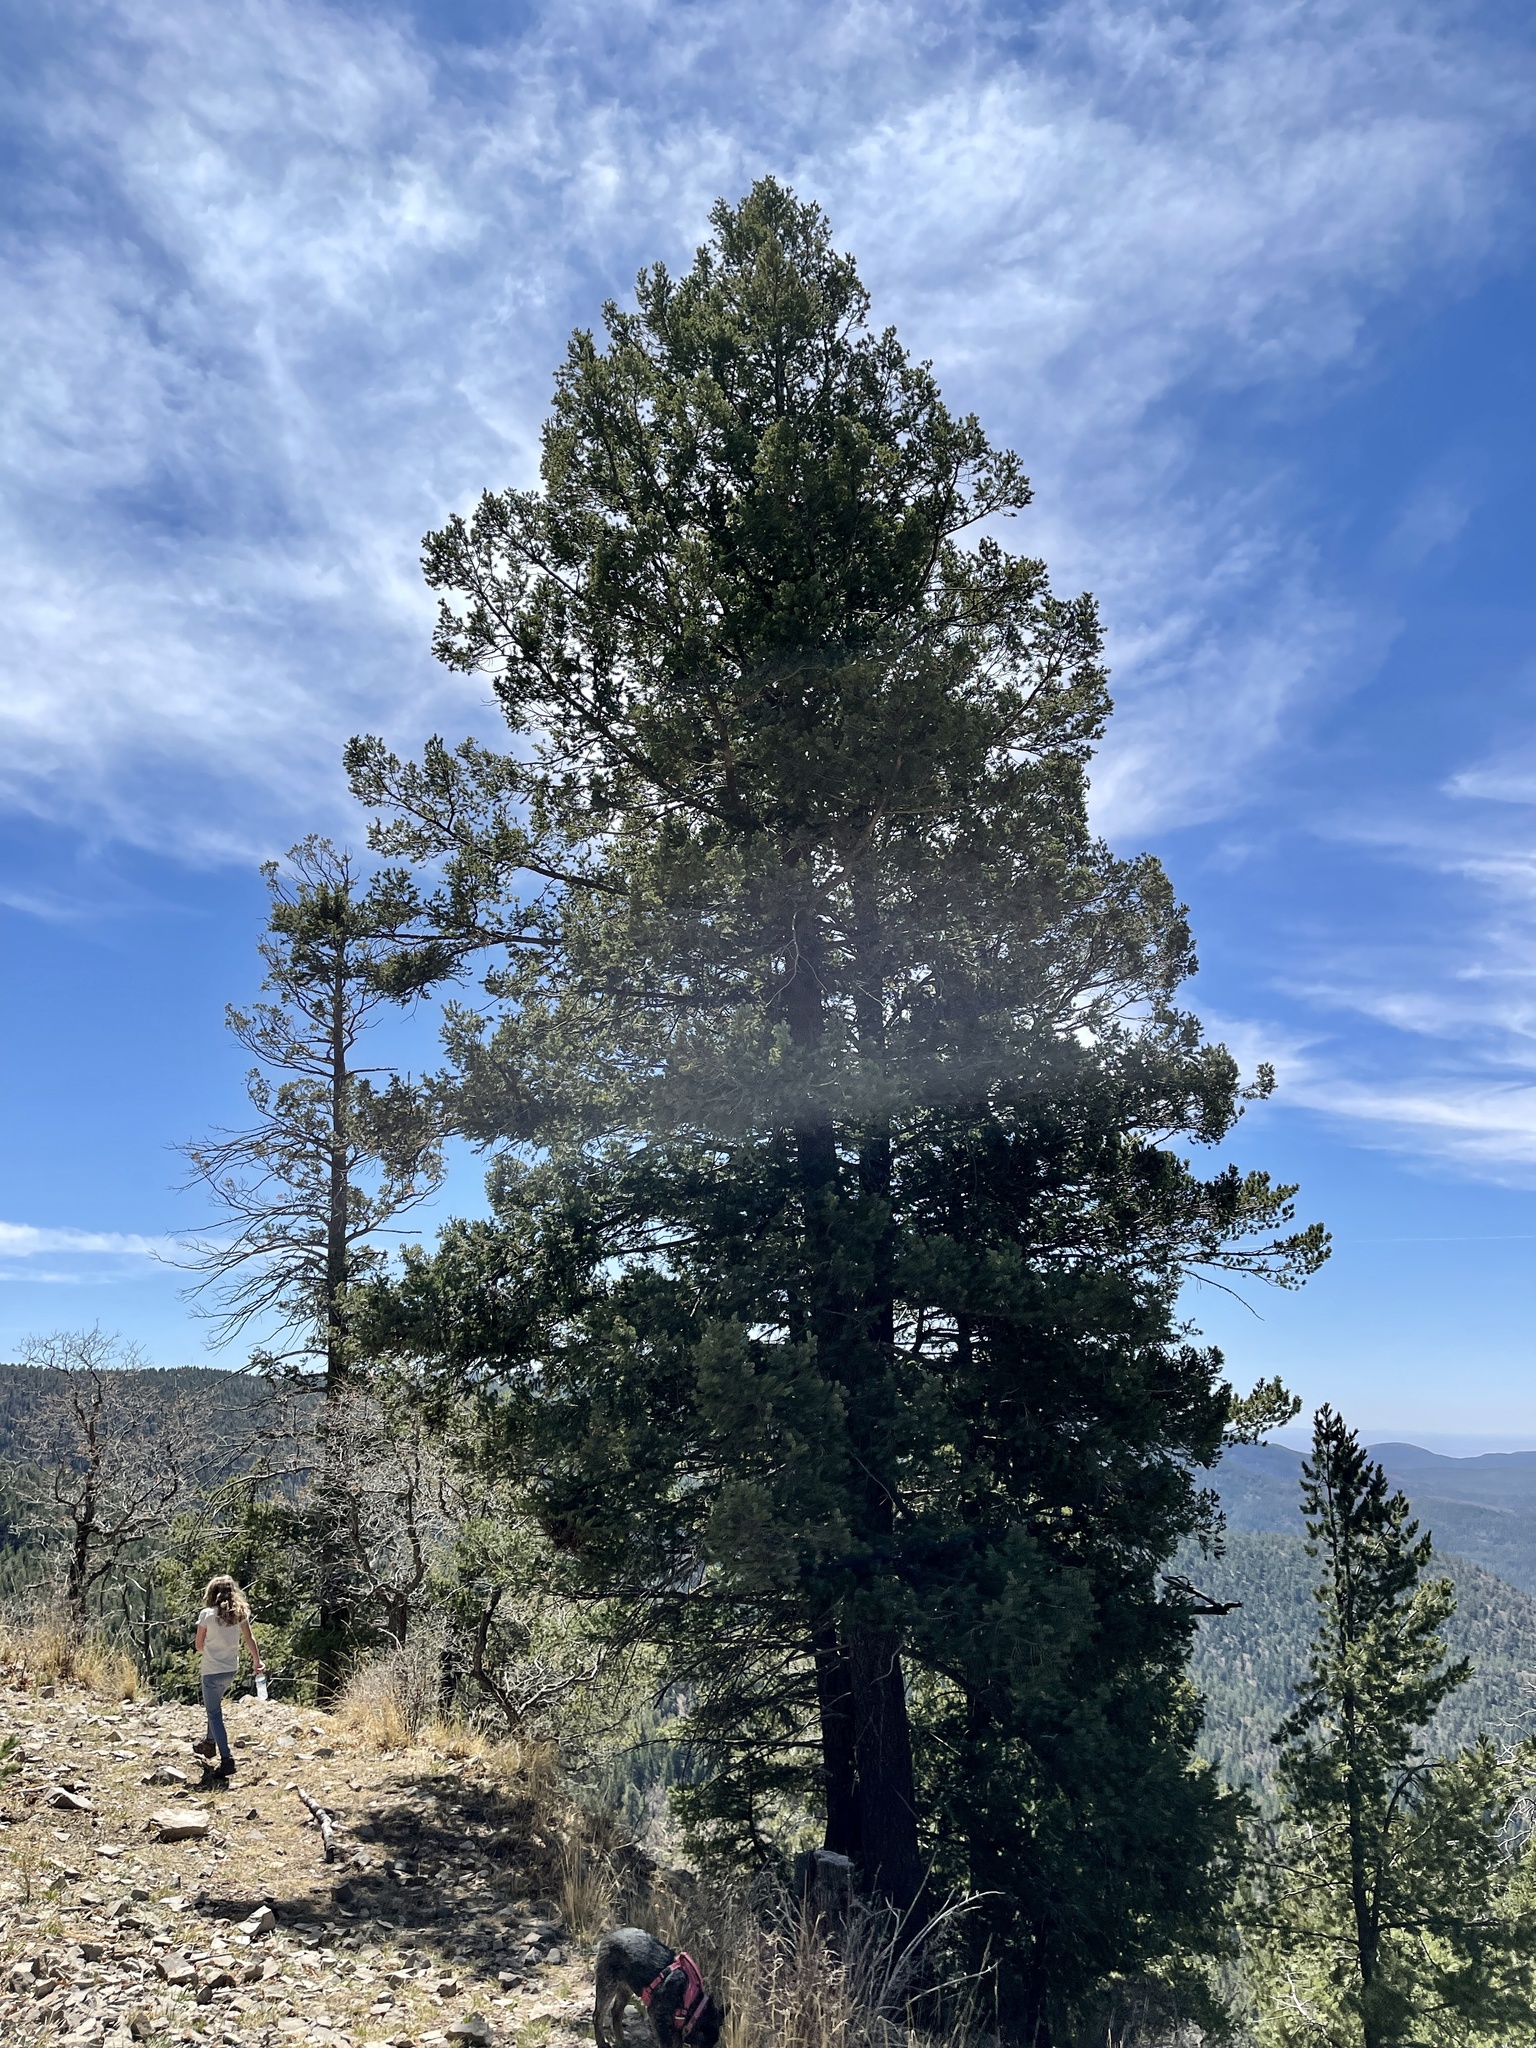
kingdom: Plantae
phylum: Tracheophyta
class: Pinopsida
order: Pinales
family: Pinaceae
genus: Picea
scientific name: Picea engelmannii
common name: Engelmann spruce
